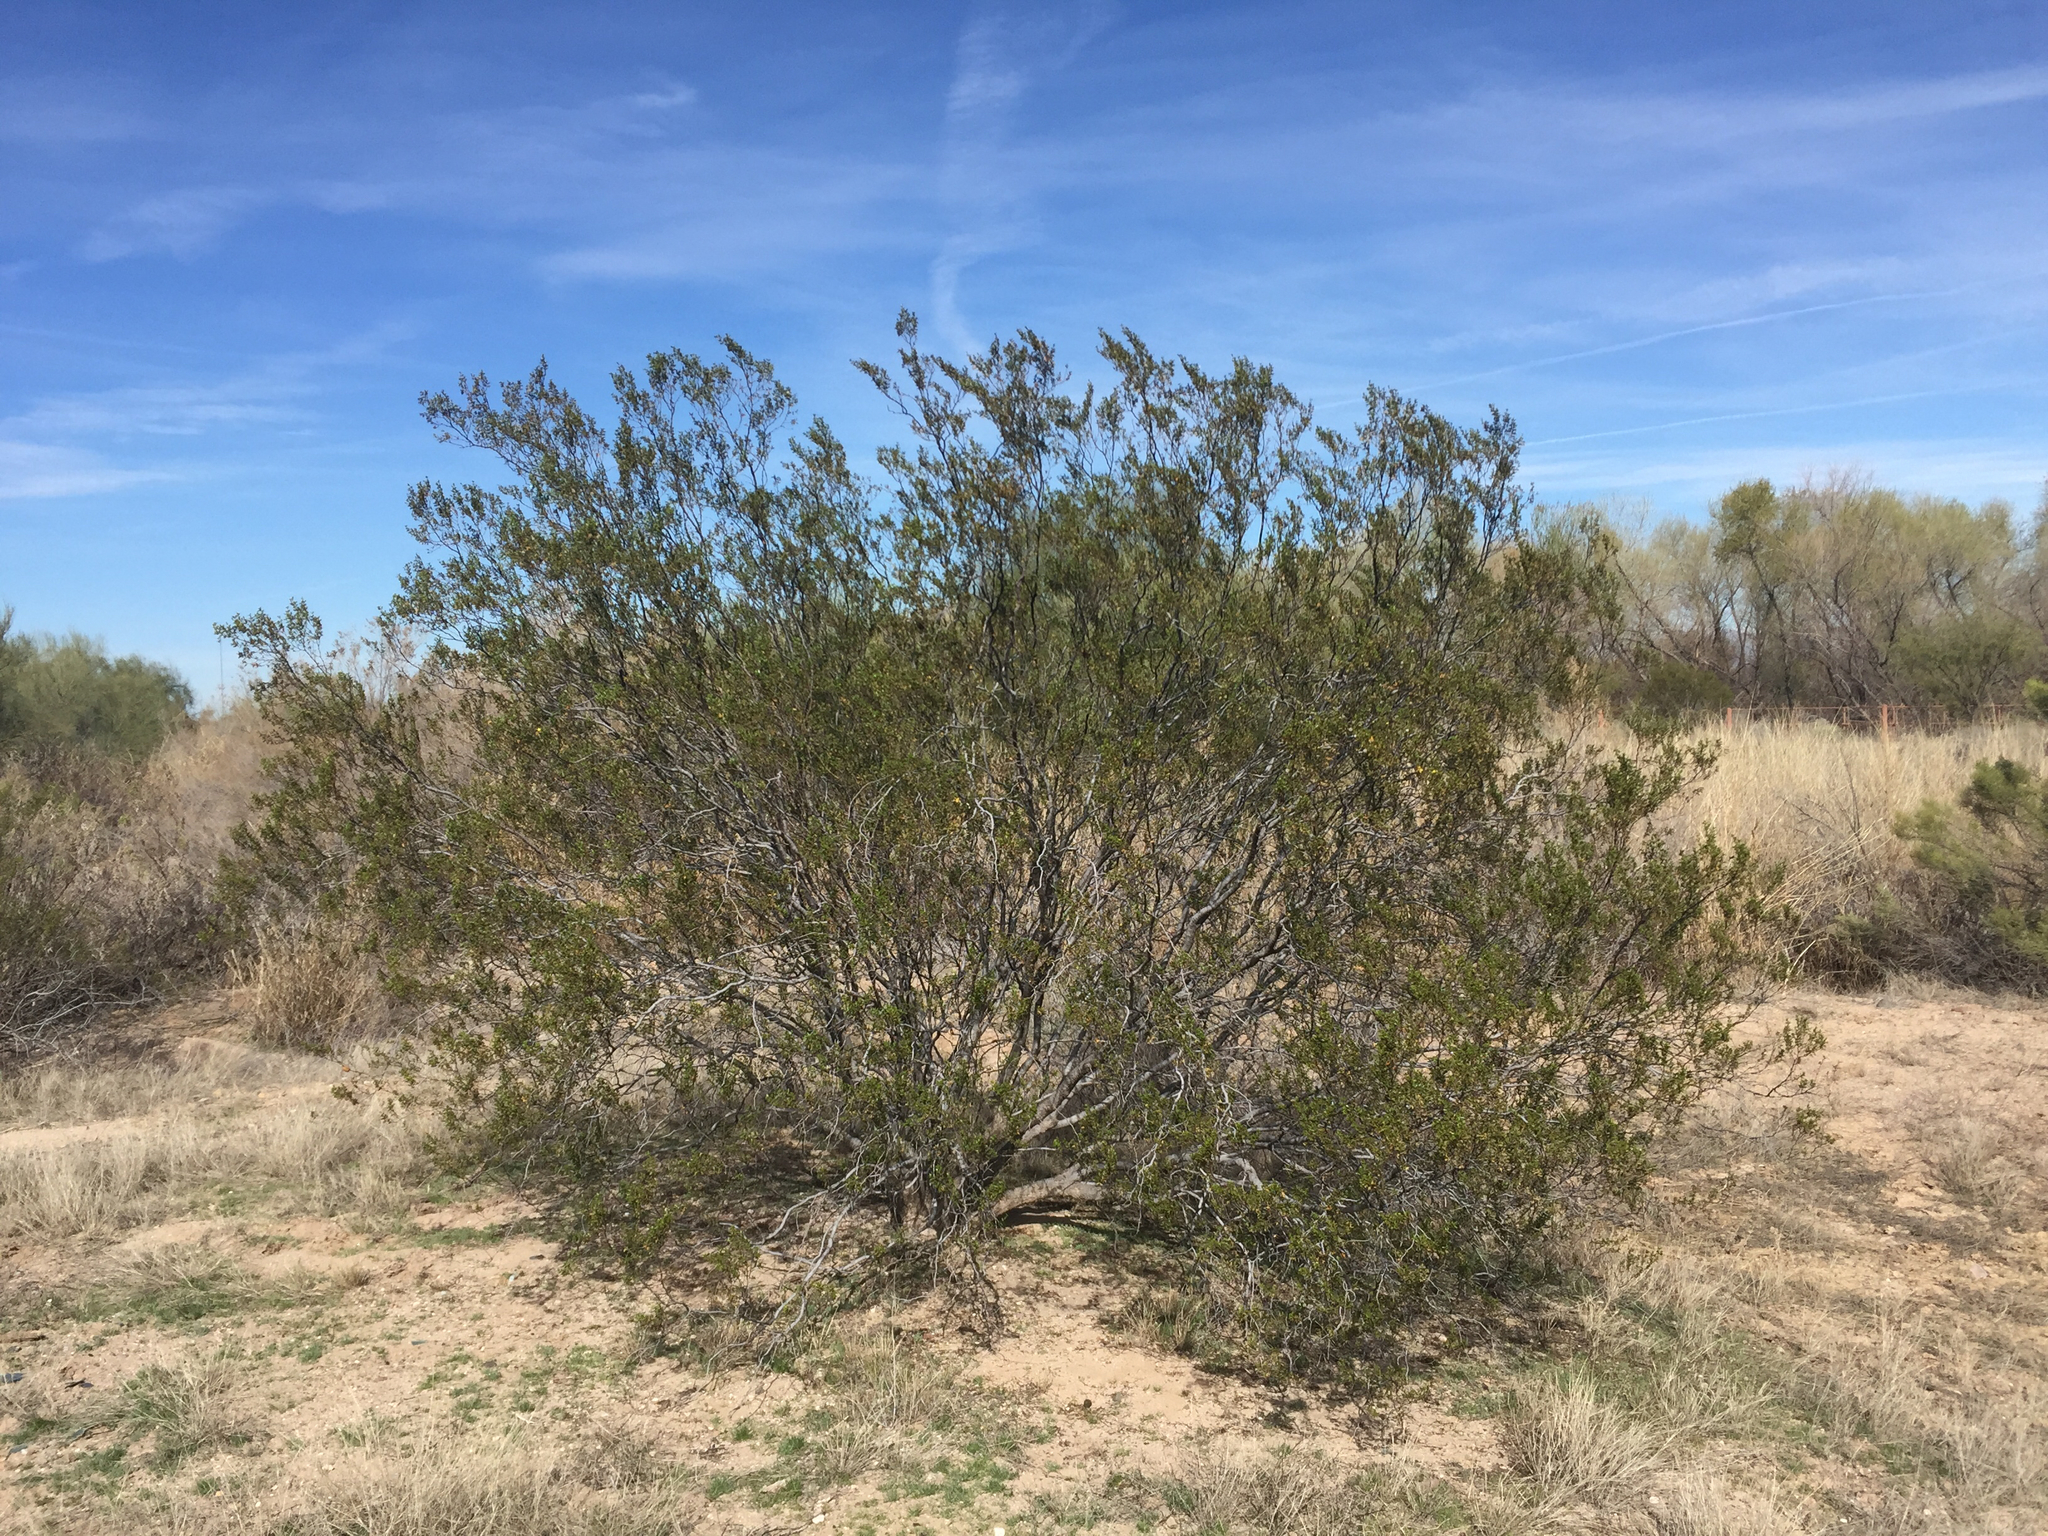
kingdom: Plantae
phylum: Tracheophyta
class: Magnoliopsida
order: Zygophyllales
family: Zygophyllaceae
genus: Larrea
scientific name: Larrea tridentata
